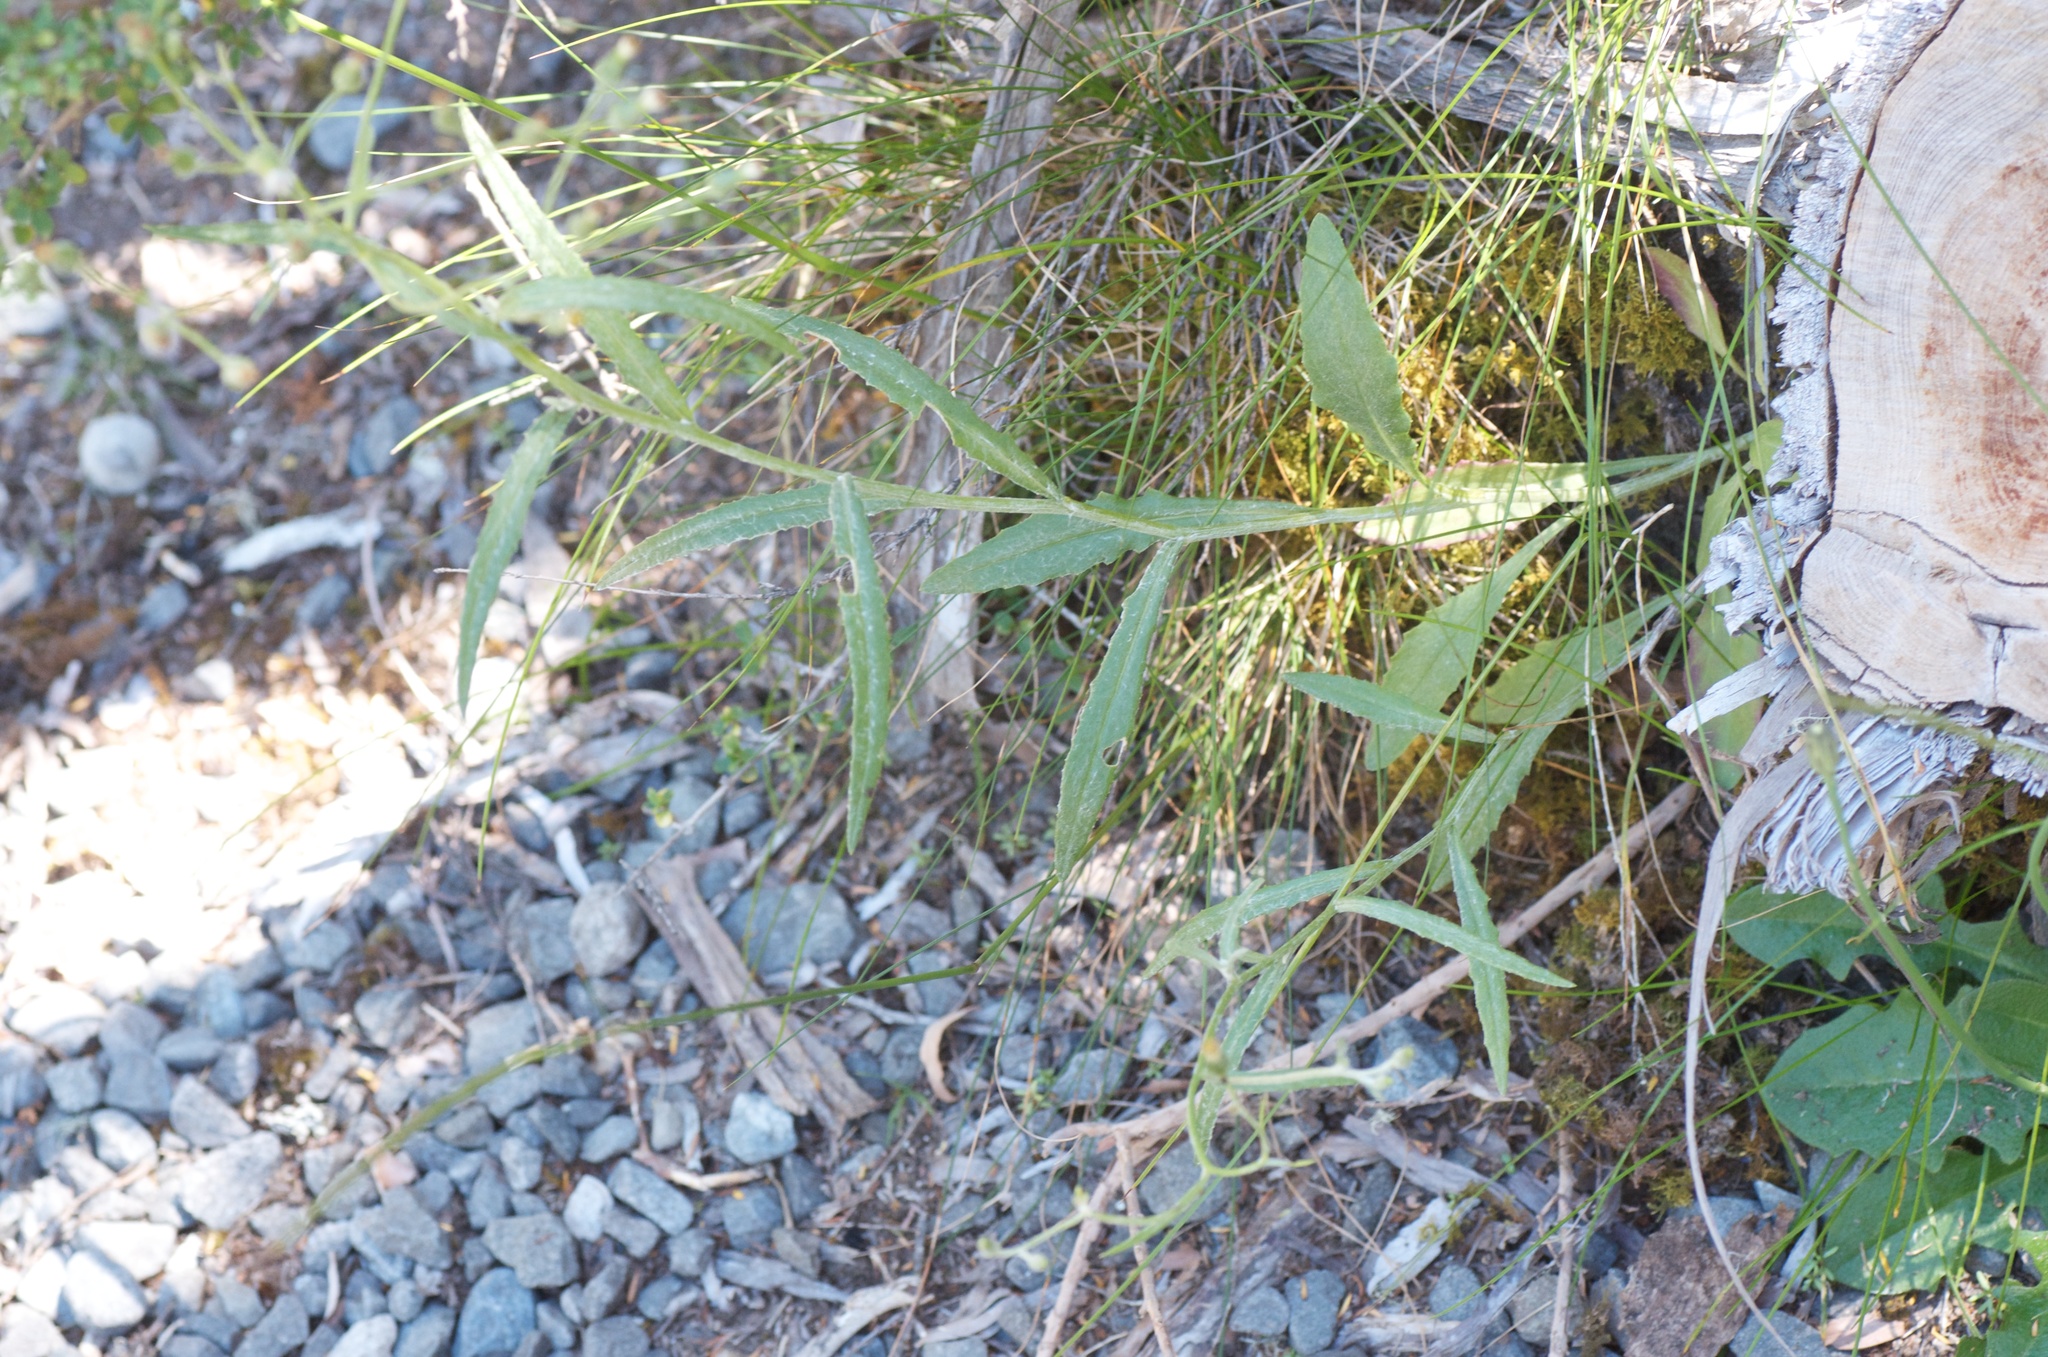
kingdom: Plantae
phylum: Tracheophyta
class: Magnoliopsida
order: Asterales
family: Asteraceae
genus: Senecio
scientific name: Senecio dunedinensis
